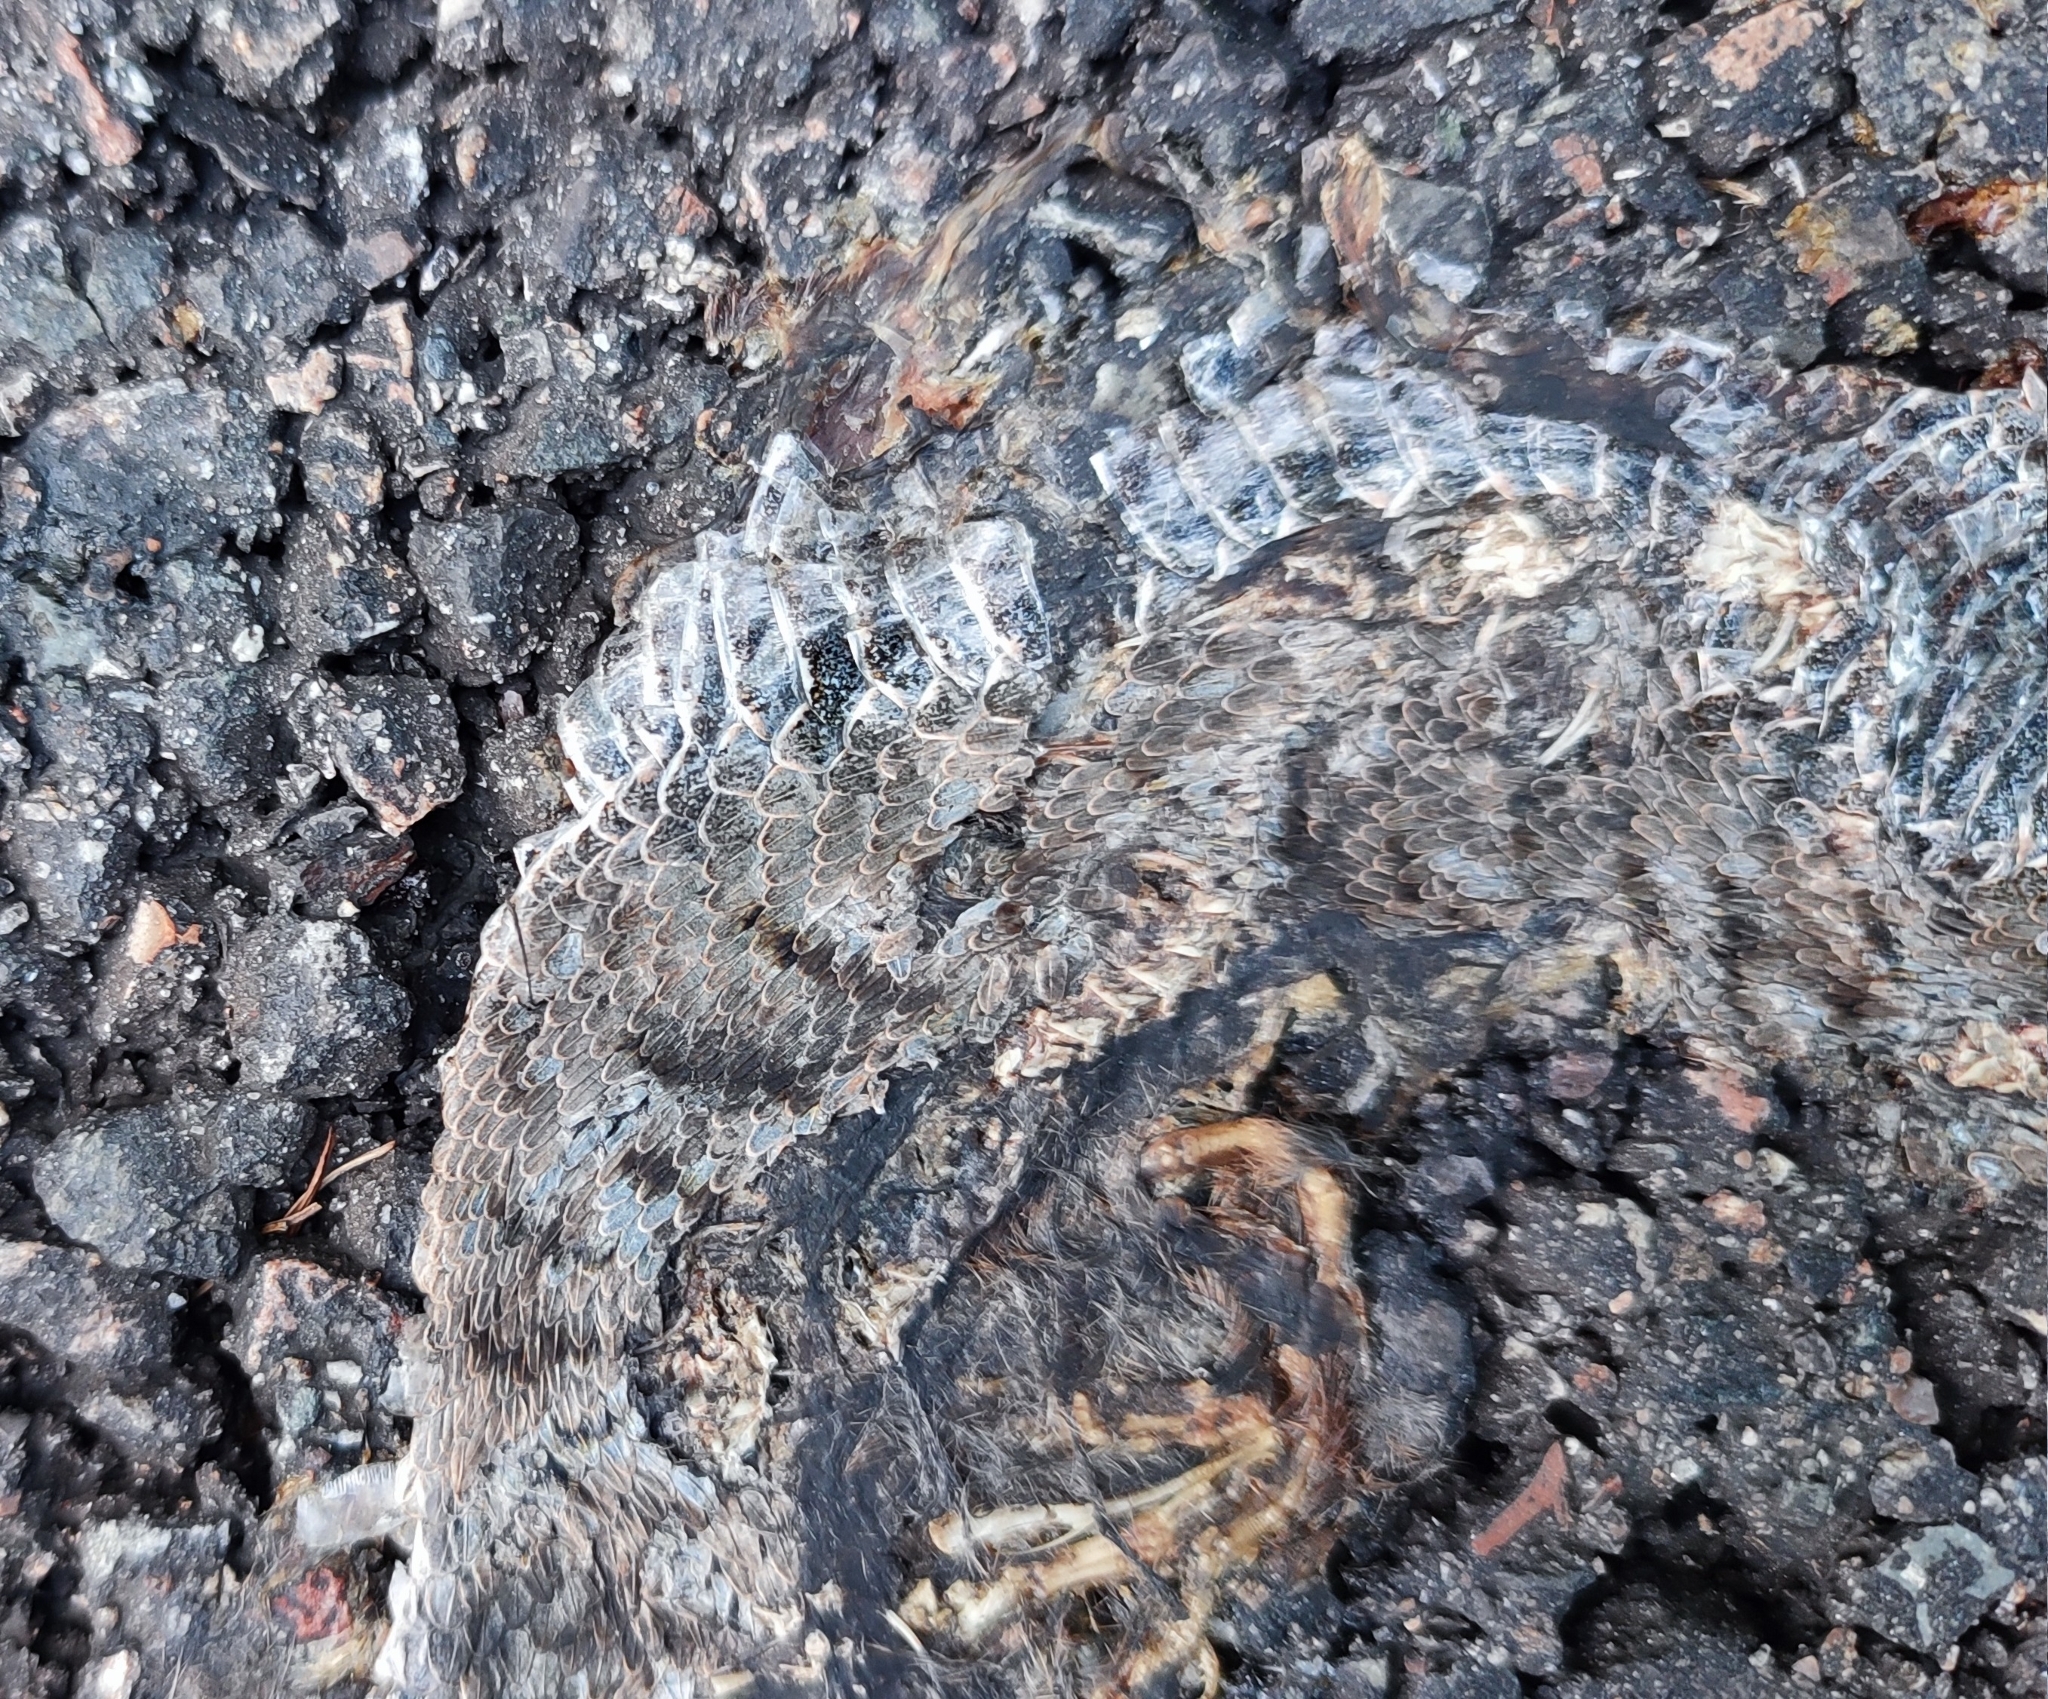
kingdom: Animalia
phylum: Chordata
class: Squamata
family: Viperidae
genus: Vipera
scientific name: Vipera aspis
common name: Asp viper
